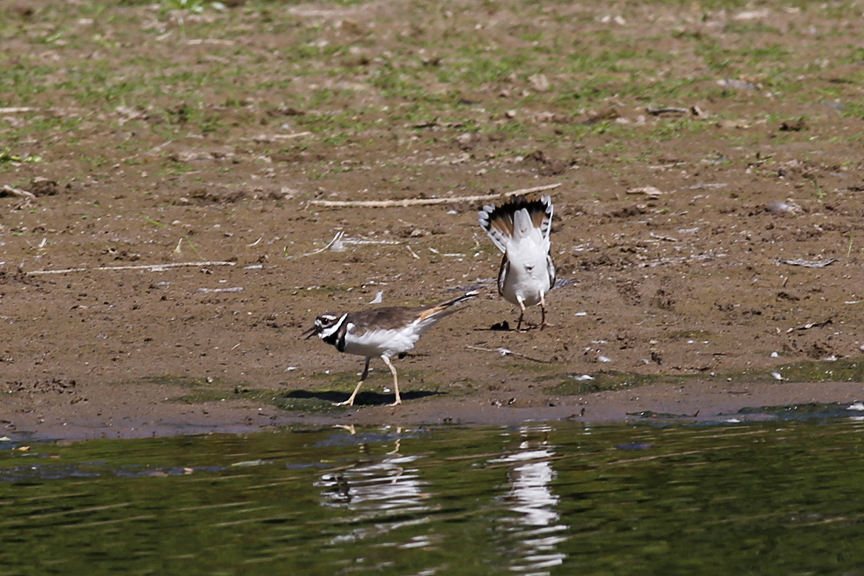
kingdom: Animalia
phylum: Chordata
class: Aves
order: Charadriiformes
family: Charadriidae
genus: Charadrius
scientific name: Charadrius vociferus
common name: Killdeer
